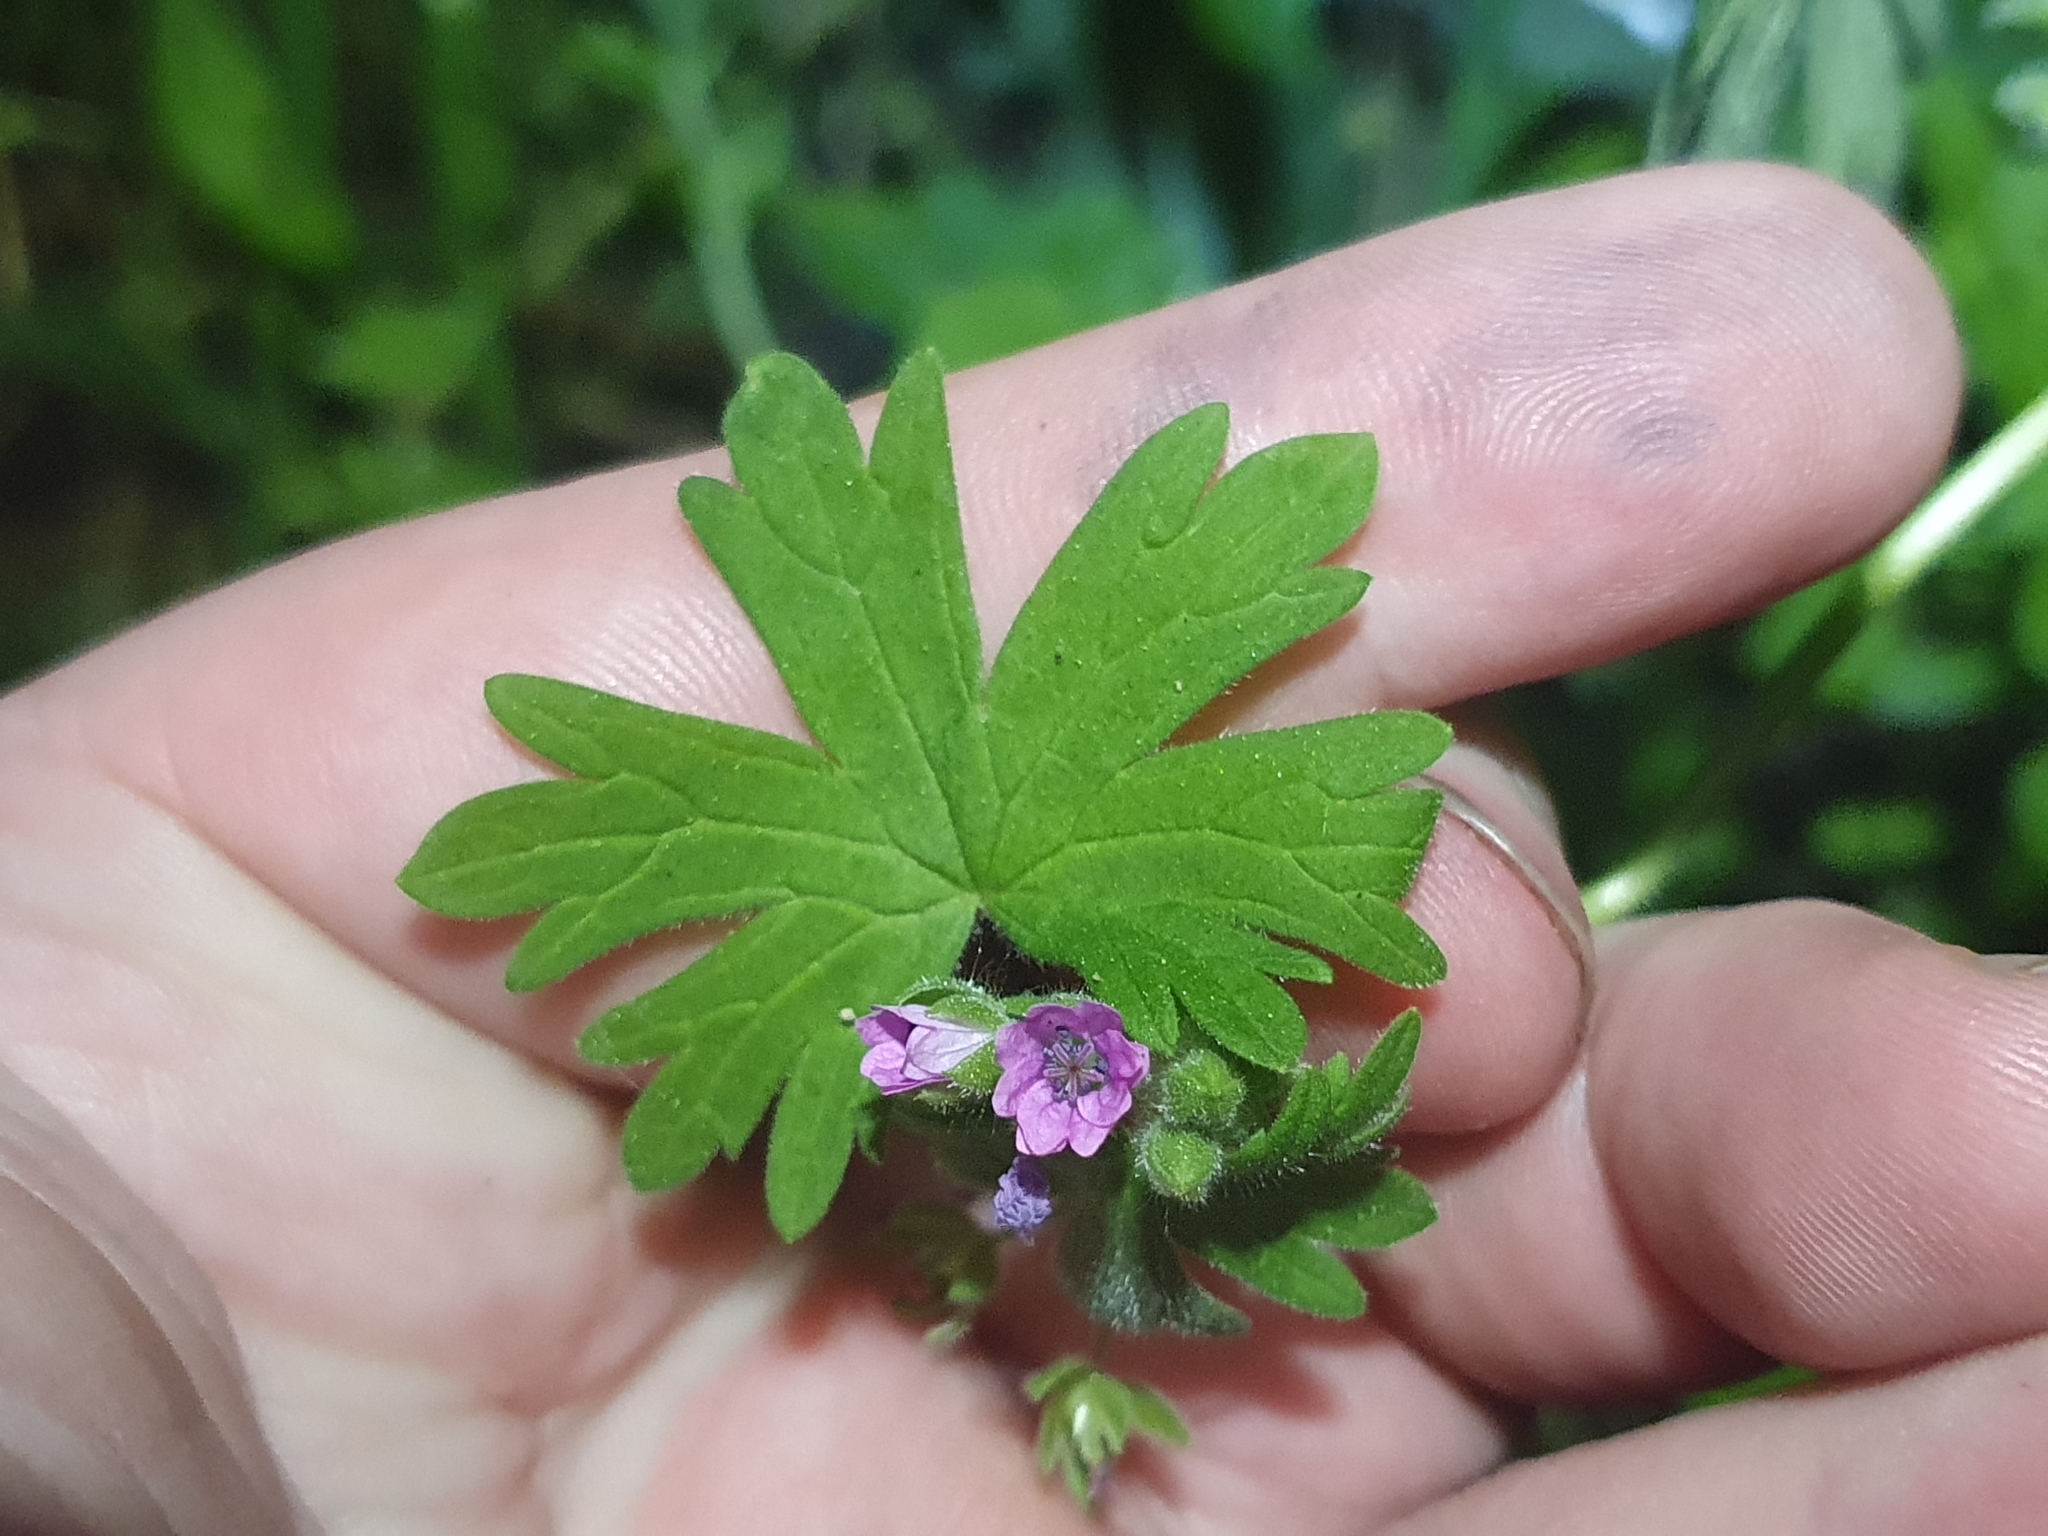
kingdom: Plantae
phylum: Tracheophyta
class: Magnoliopsida
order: Geraniales
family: Geraniaceae
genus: Geranium
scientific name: Geranium molle
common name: Dove's-foot crane's-bill
